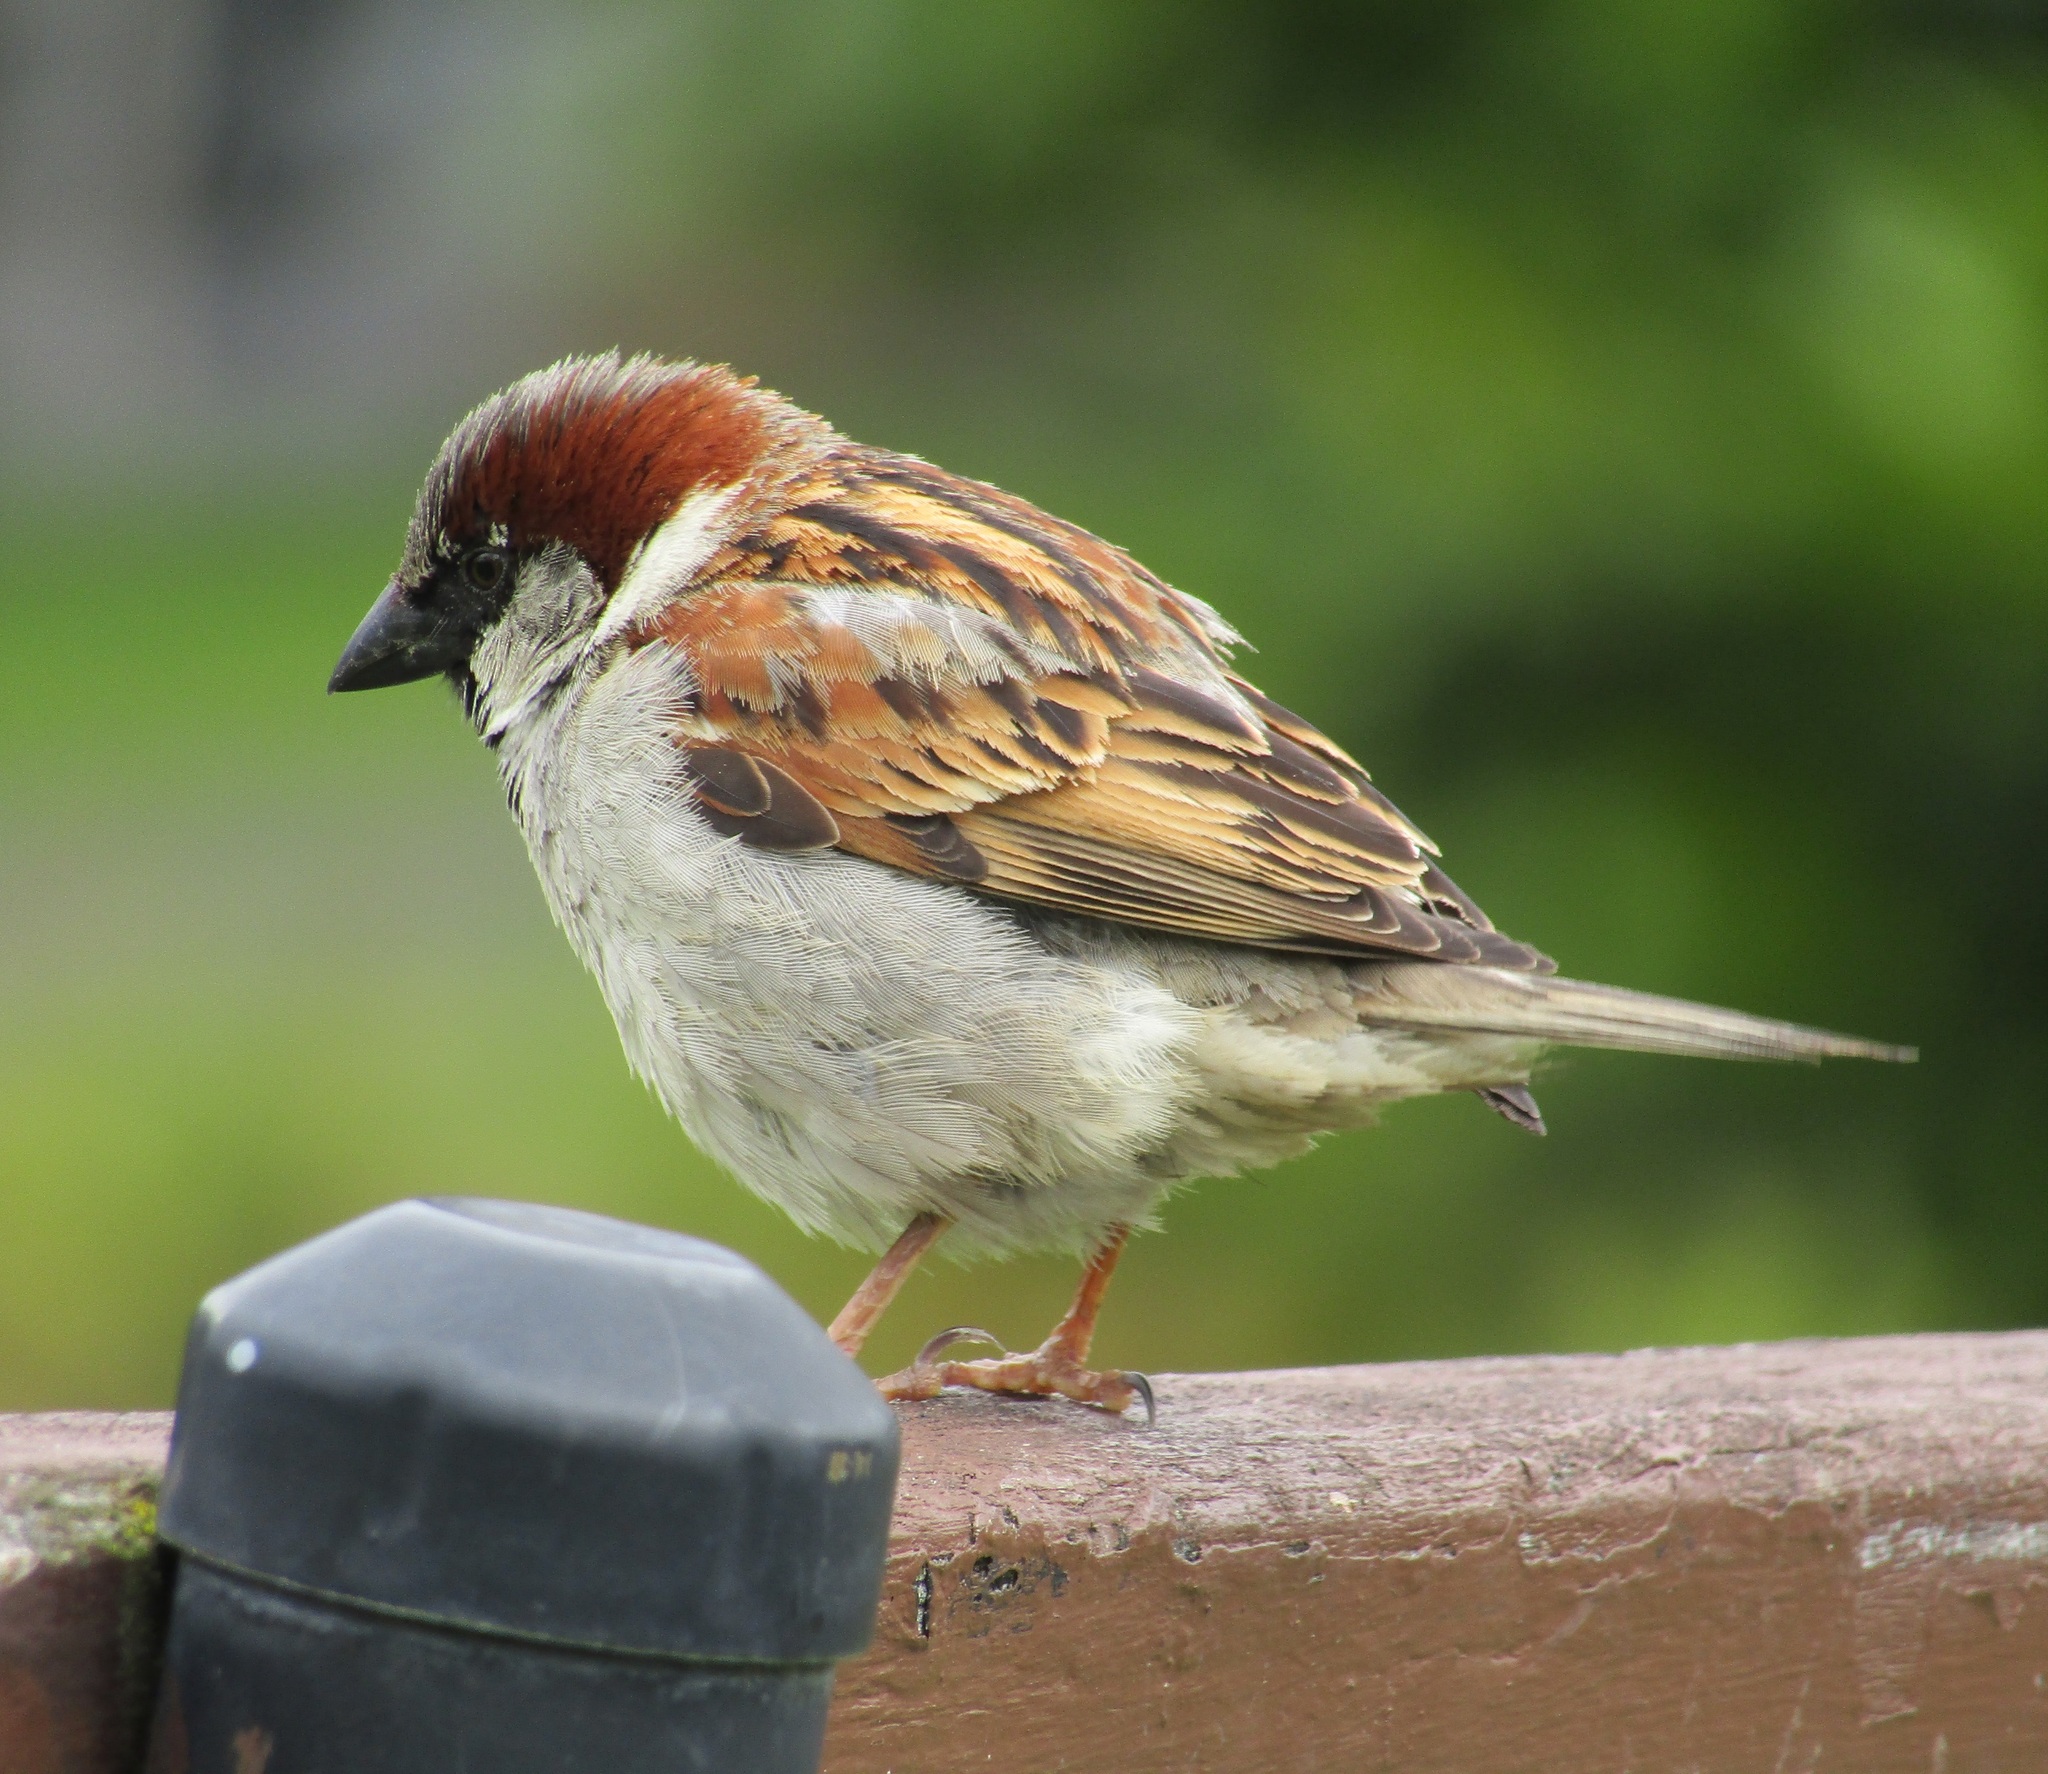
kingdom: Animalia
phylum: Chordata
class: Aves
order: Passeriformes
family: Passeridae
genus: Passer
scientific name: Passer domesticus
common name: House sparrow
